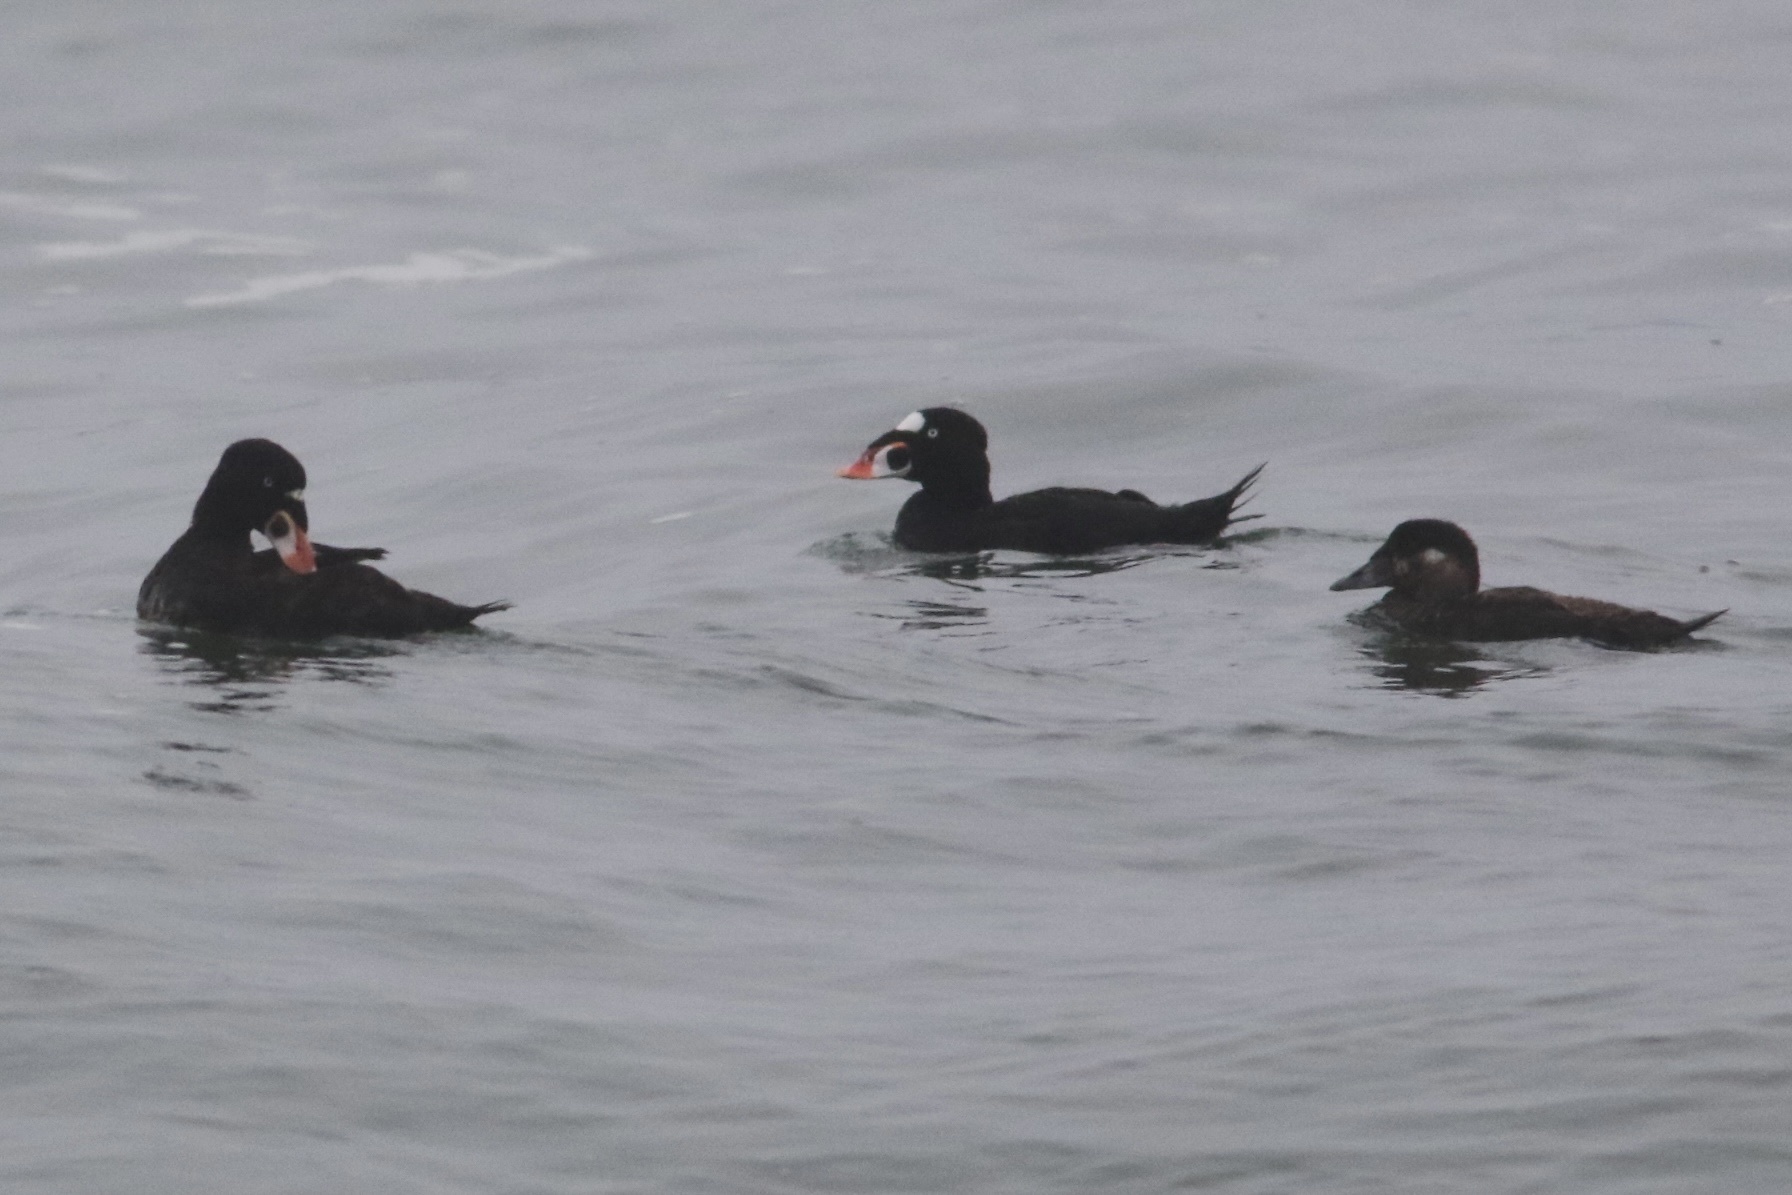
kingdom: Animalia
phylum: Chordata
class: Aves
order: Anseriformes
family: Anatidae
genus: Melanitta
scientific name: Melanitta perspicillata
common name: Surf scoter
